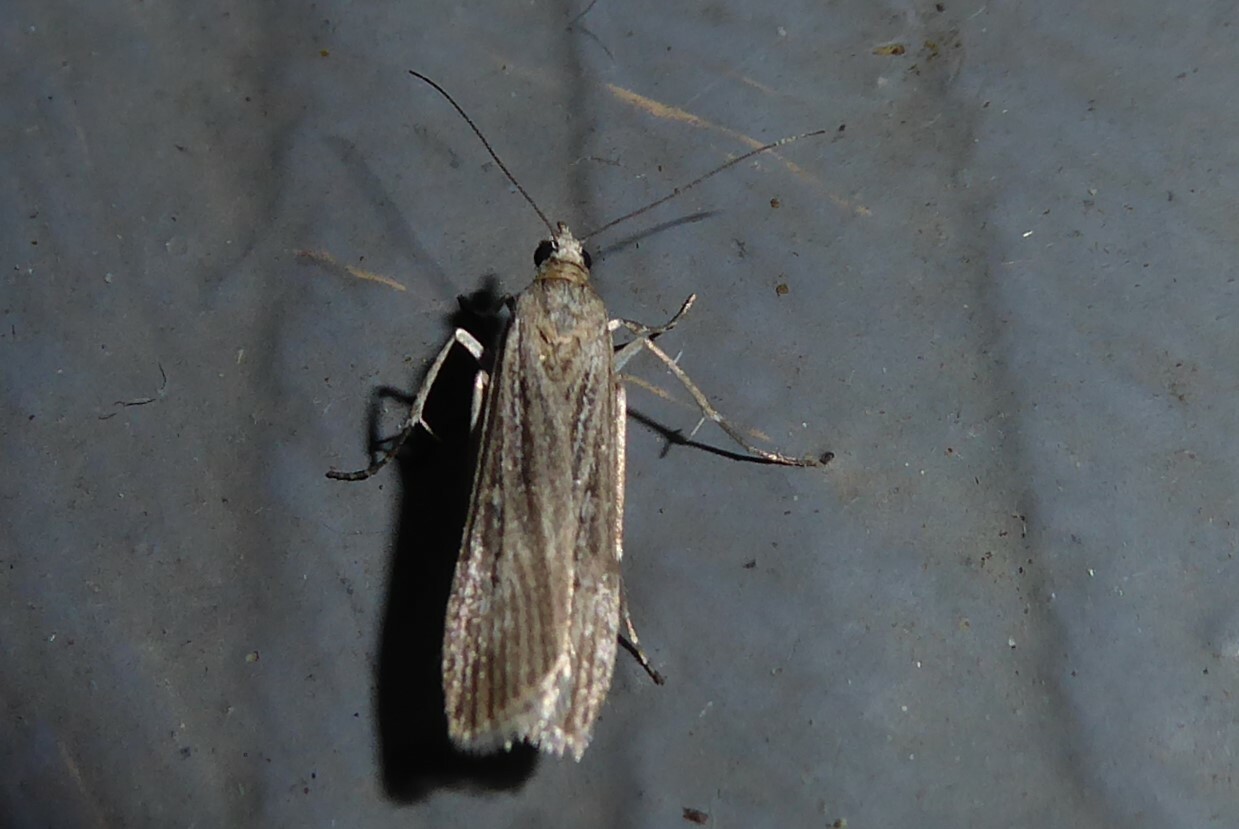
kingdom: Animalia
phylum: Arthropoda
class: Insecta
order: Lepidoptera
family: Crambidae
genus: Eudonia
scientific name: Eudonia atmogramma
